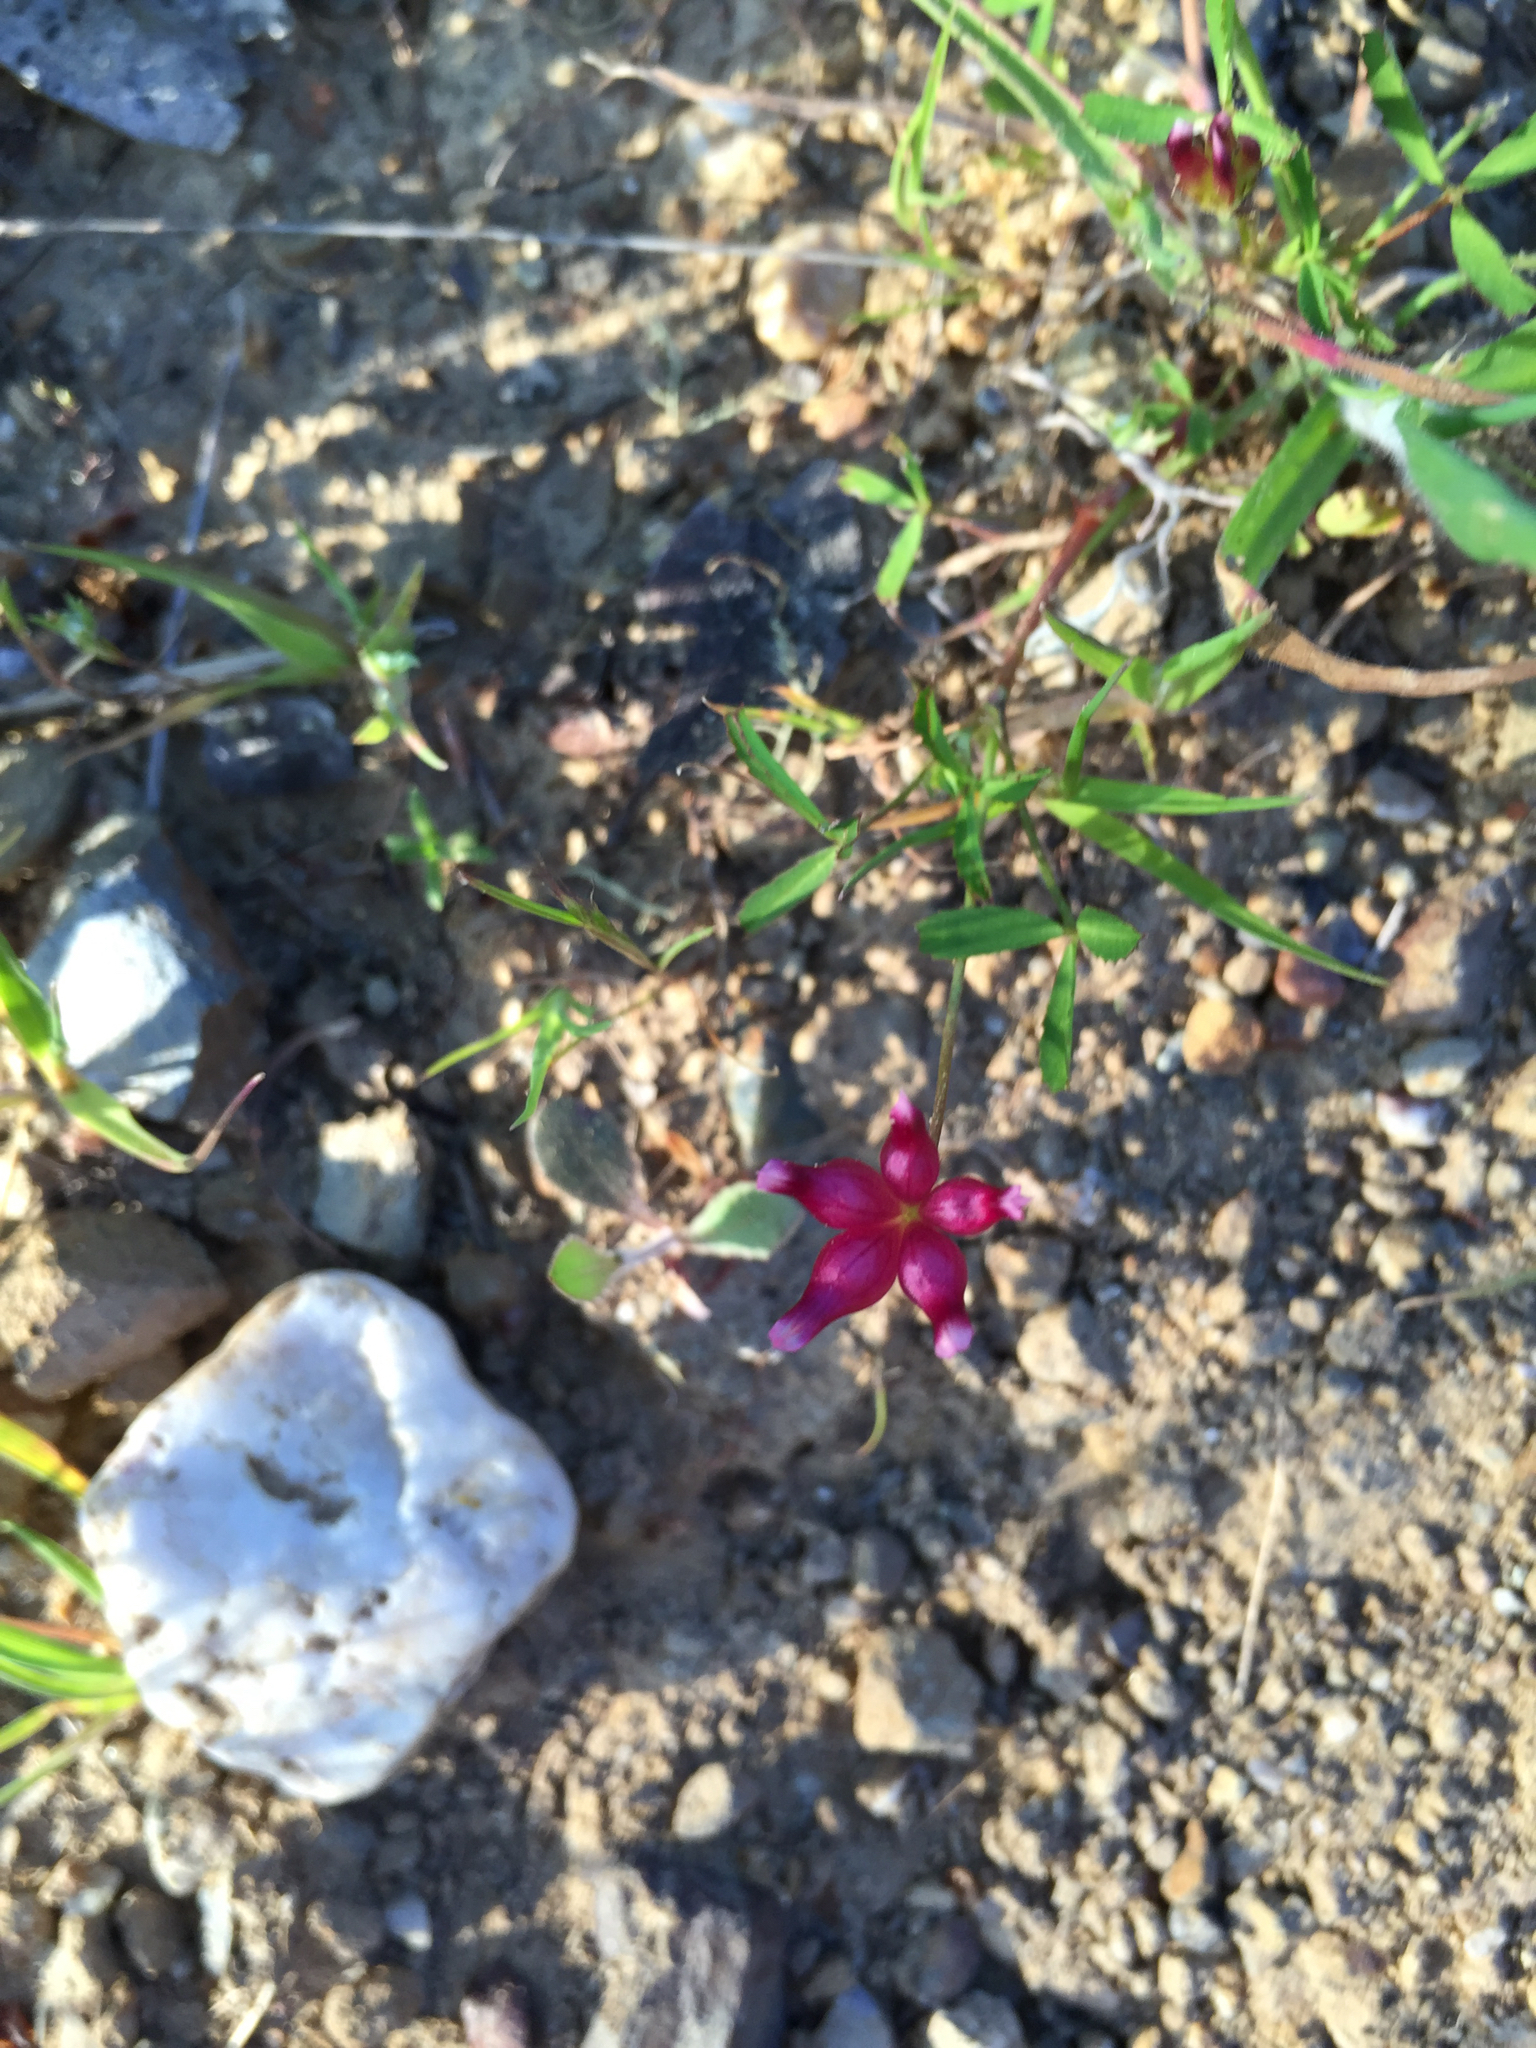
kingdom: Plantae
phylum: Tracheophyta
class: Magnoliopsida
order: Fabales
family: Fabaceae
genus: Trifolium
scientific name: Trifolium depauperatum
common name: Poverty clover
